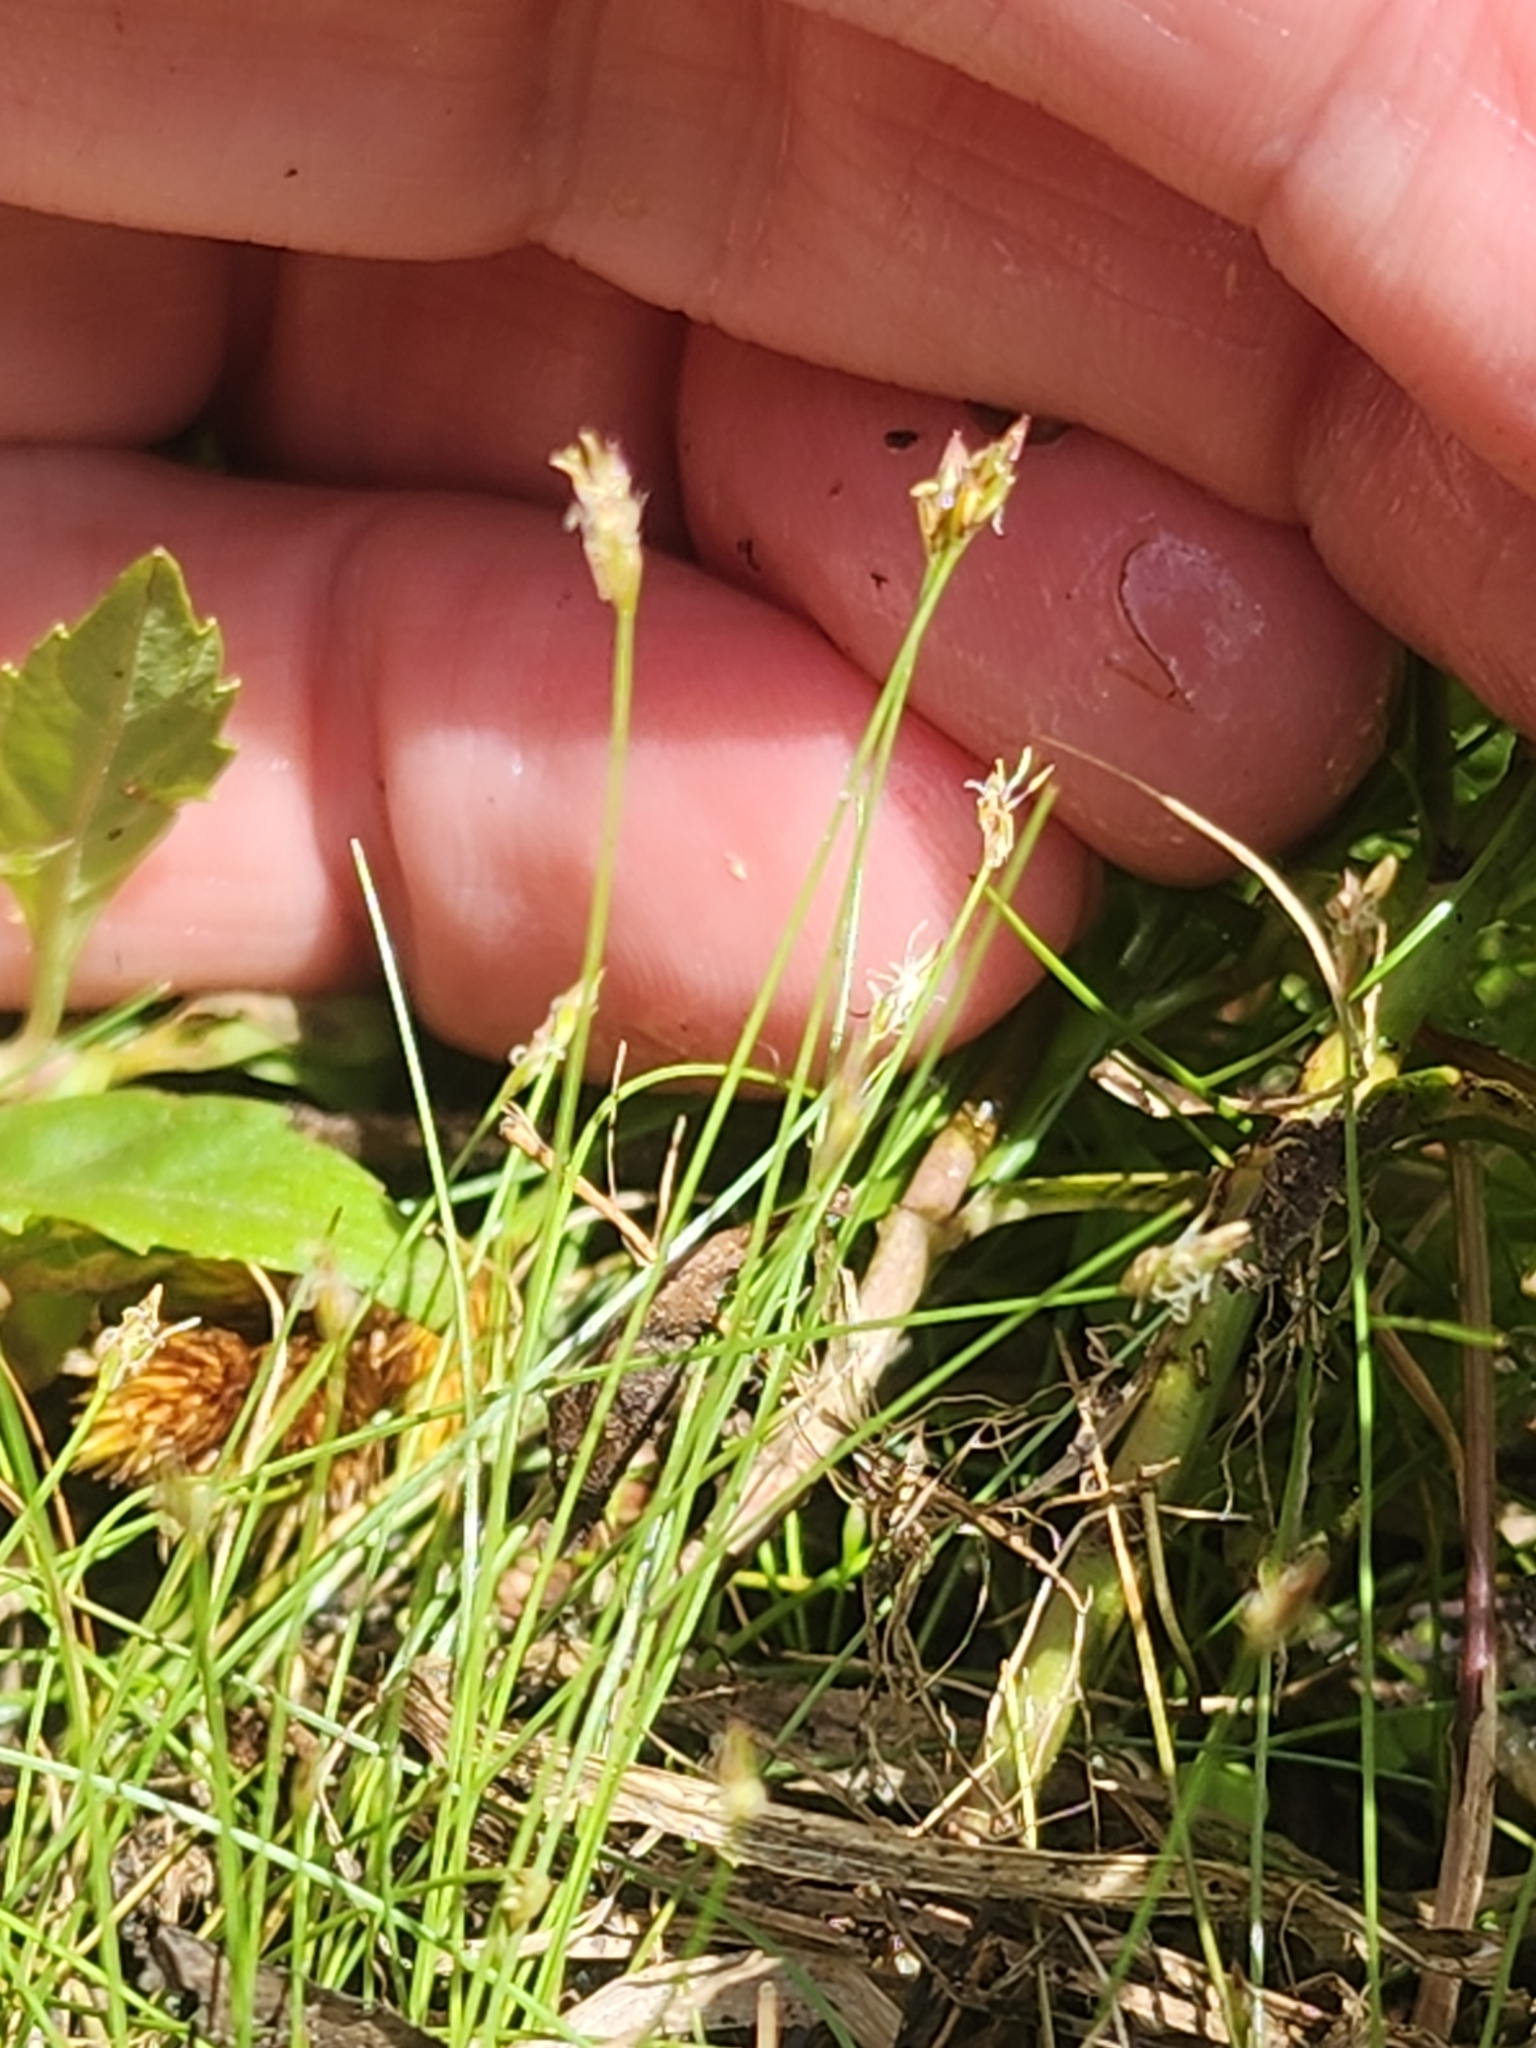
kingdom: Plantae
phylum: Tracheophyta
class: Liliopsida
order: Poales
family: Cyperaceae
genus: Eleocharis
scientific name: Eleocharis acicularis
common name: Needle spike-rush
